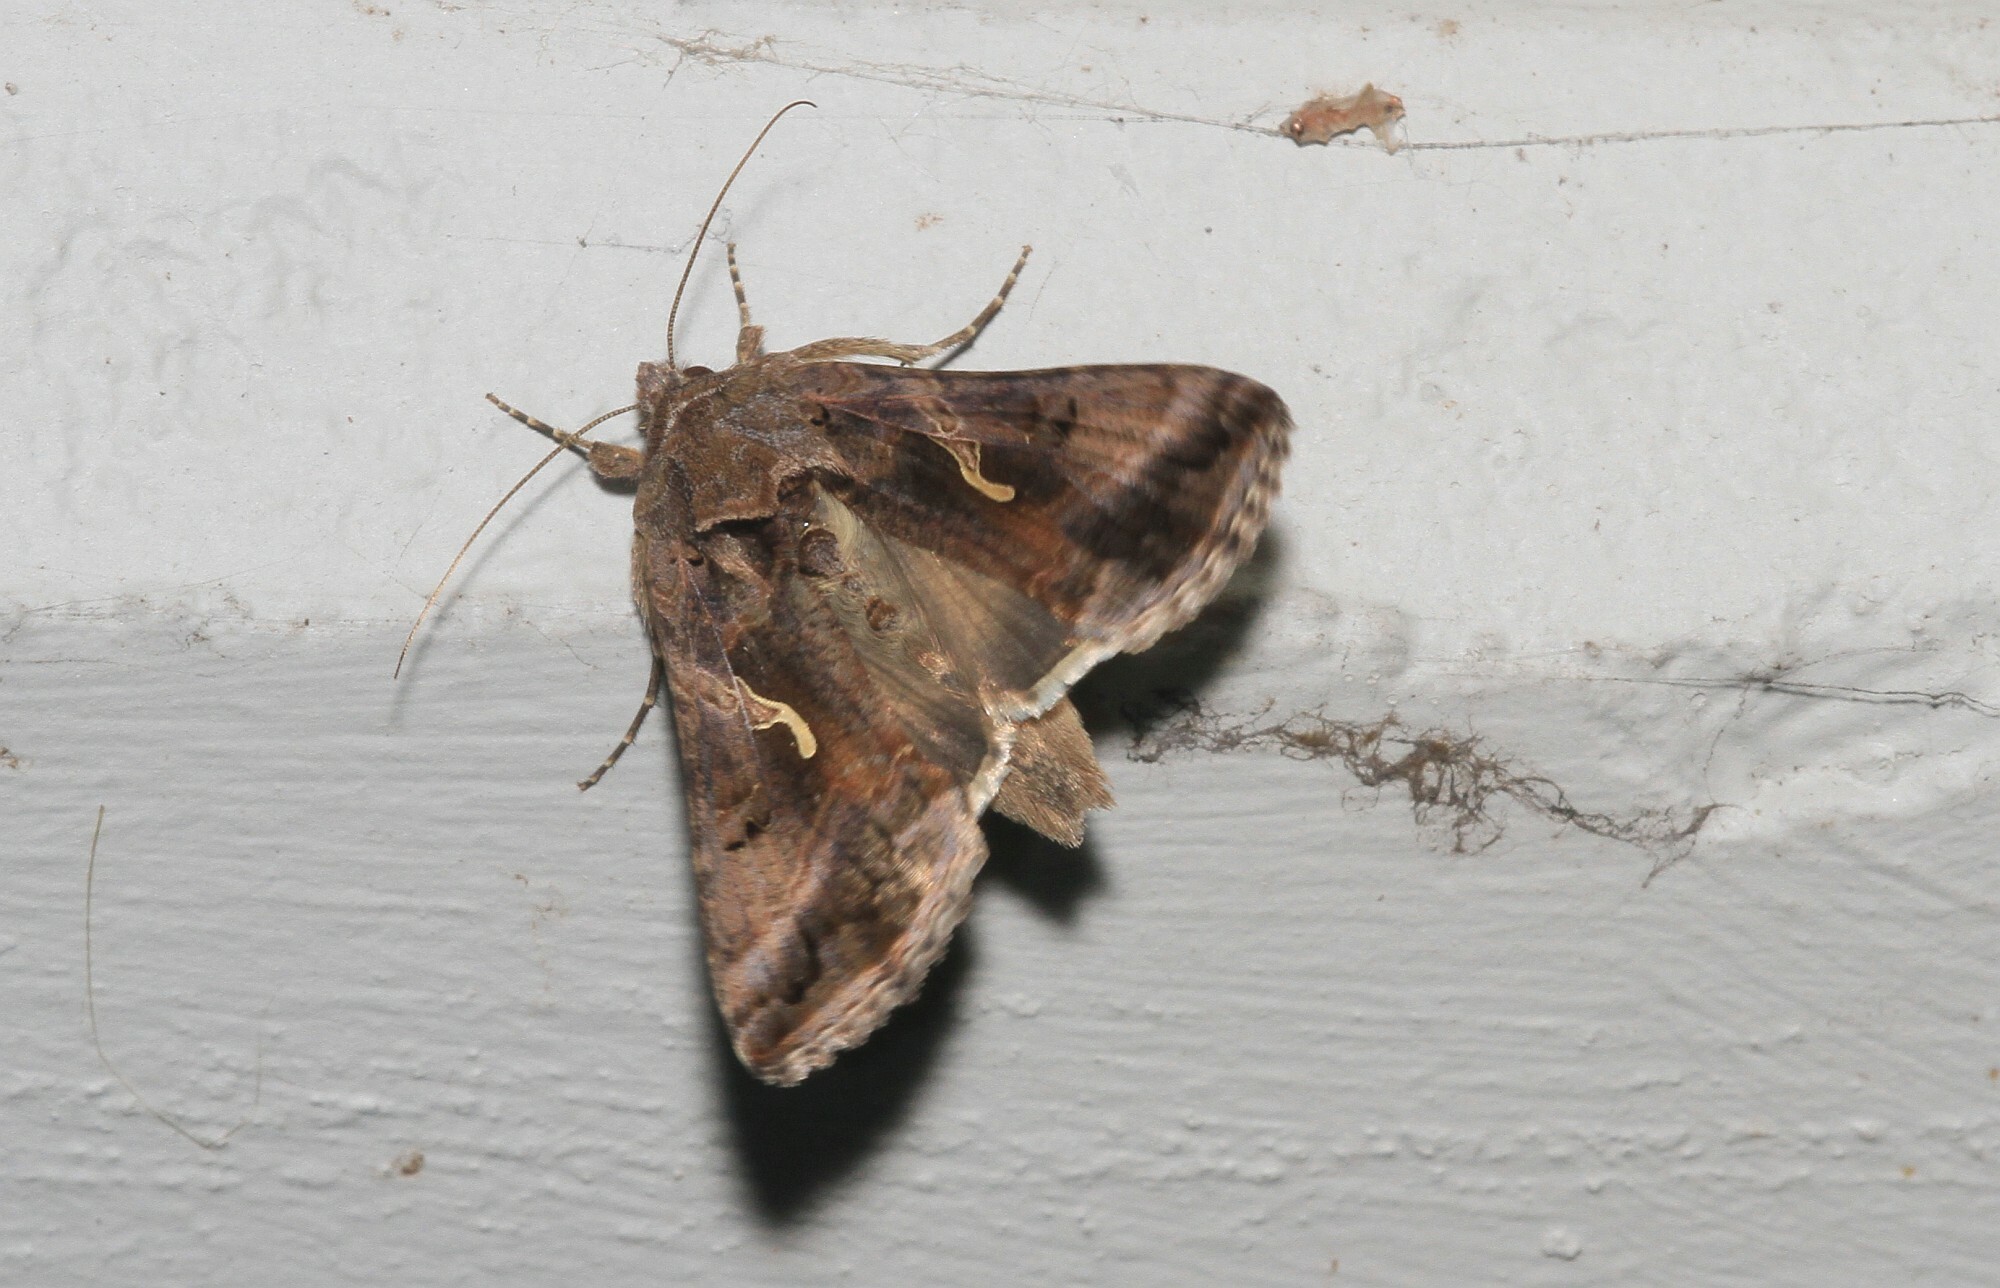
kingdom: Animalia
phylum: Arthropoda
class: Insecta
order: Lepidoptera
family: Noctuidae
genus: Autographa
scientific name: Autographa gamma
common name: Silver y
